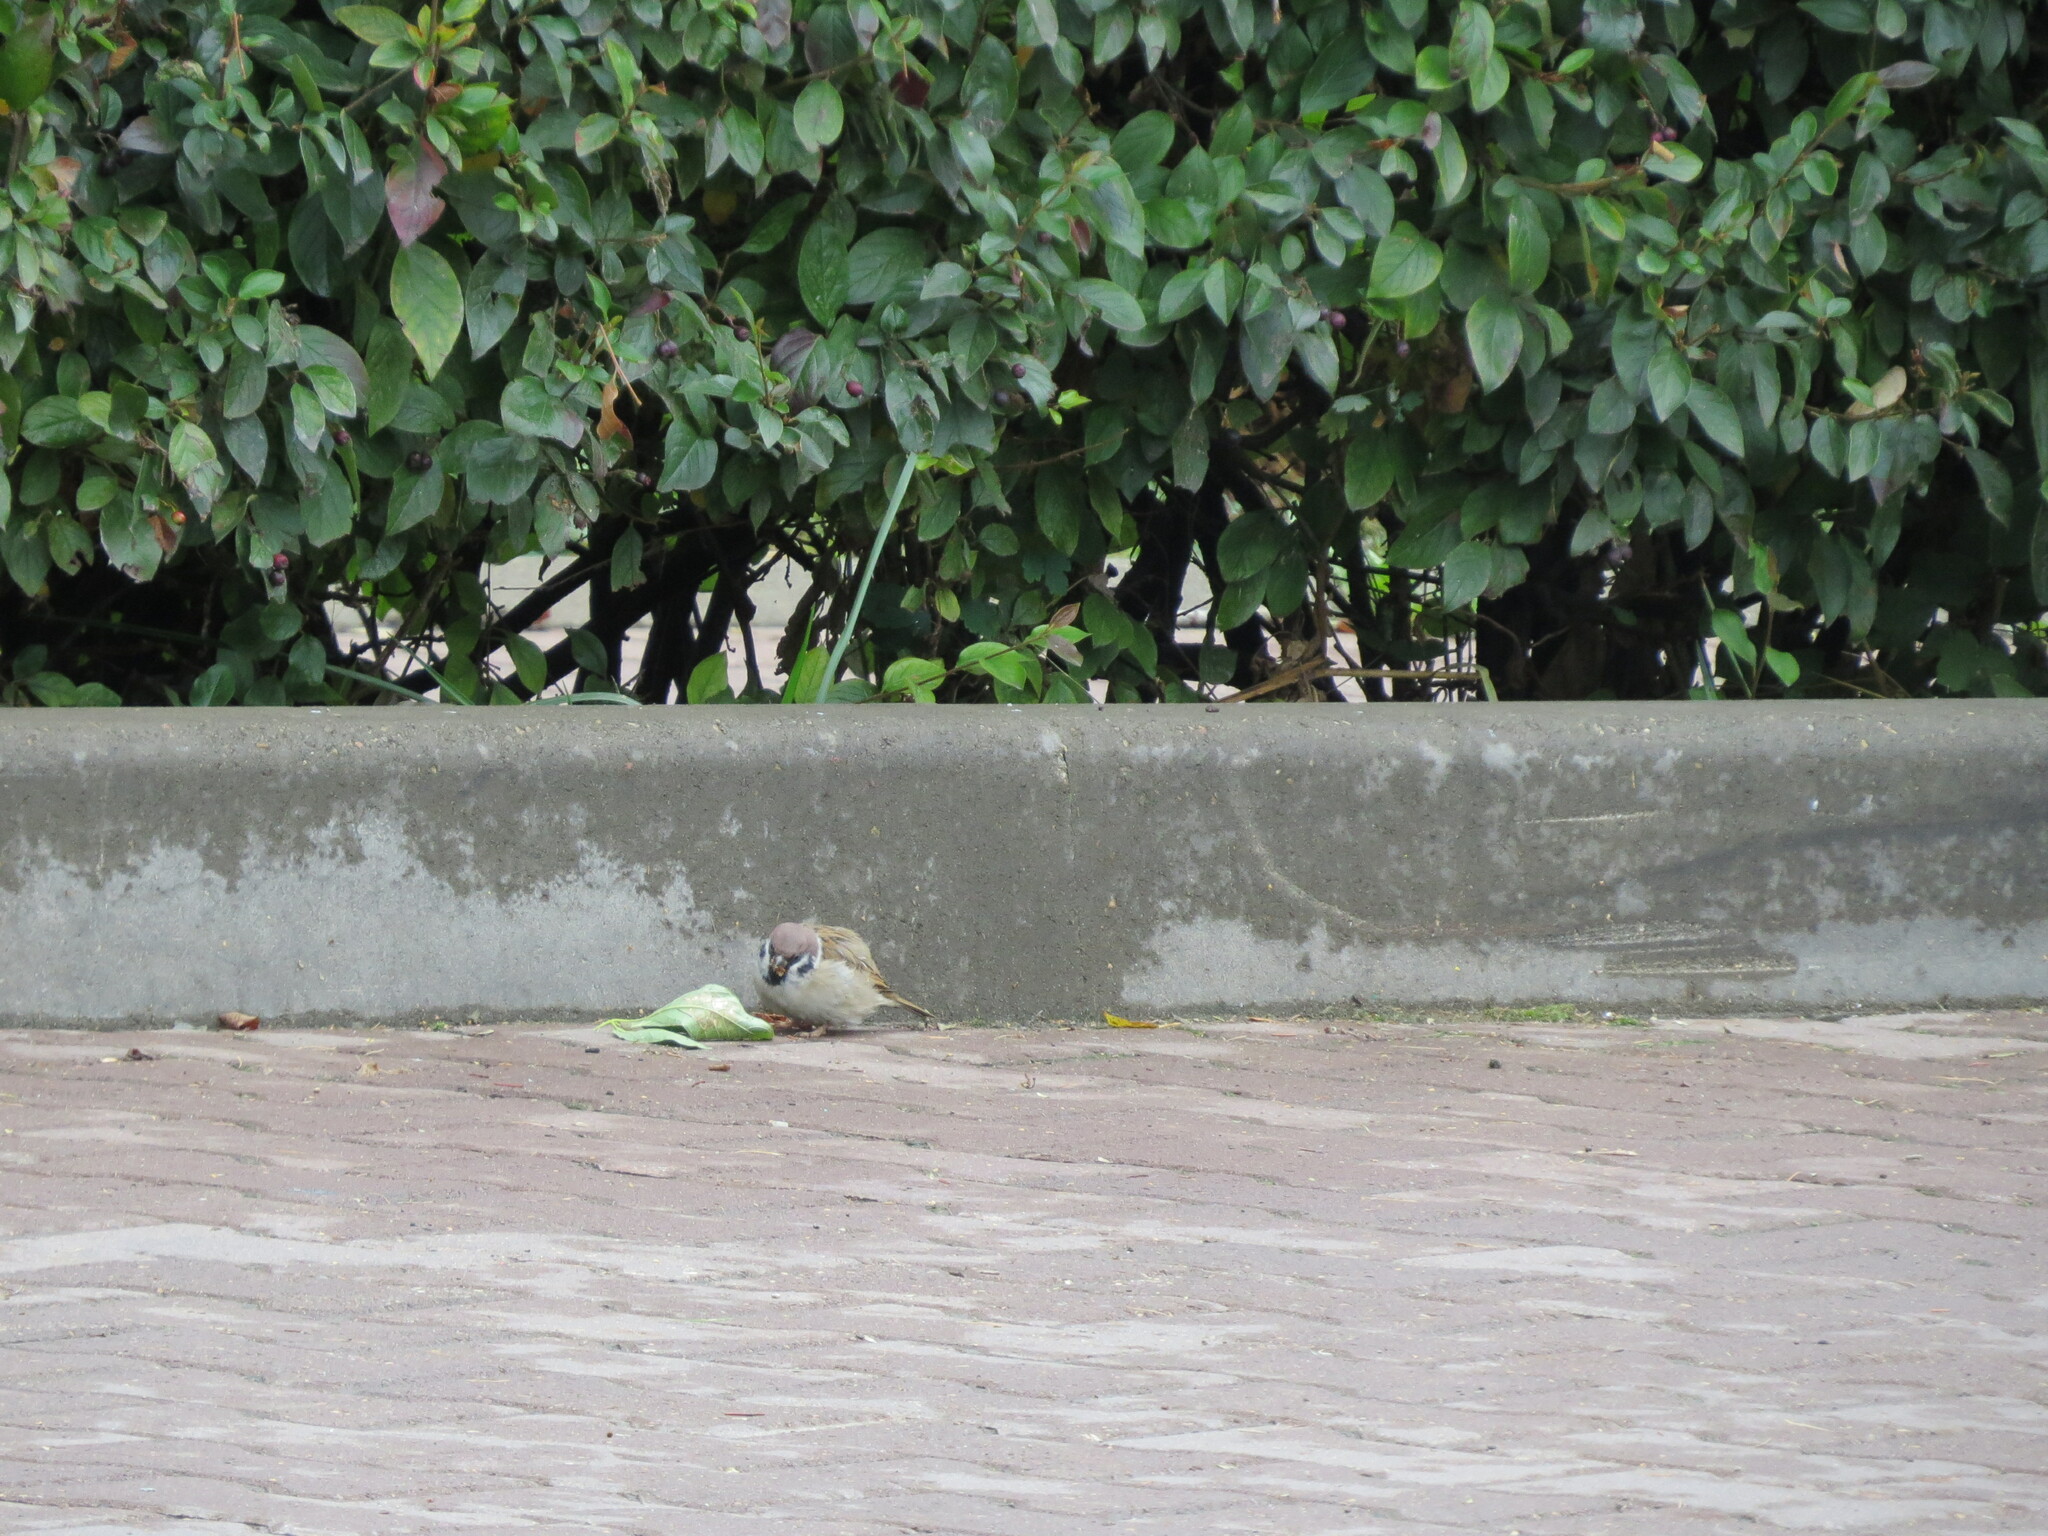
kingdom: Animalia
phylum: Chordata
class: Aves
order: Passeriformes
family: Passeridae
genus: Passer
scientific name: Passer montanus
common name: Eurasian tree sparrow
